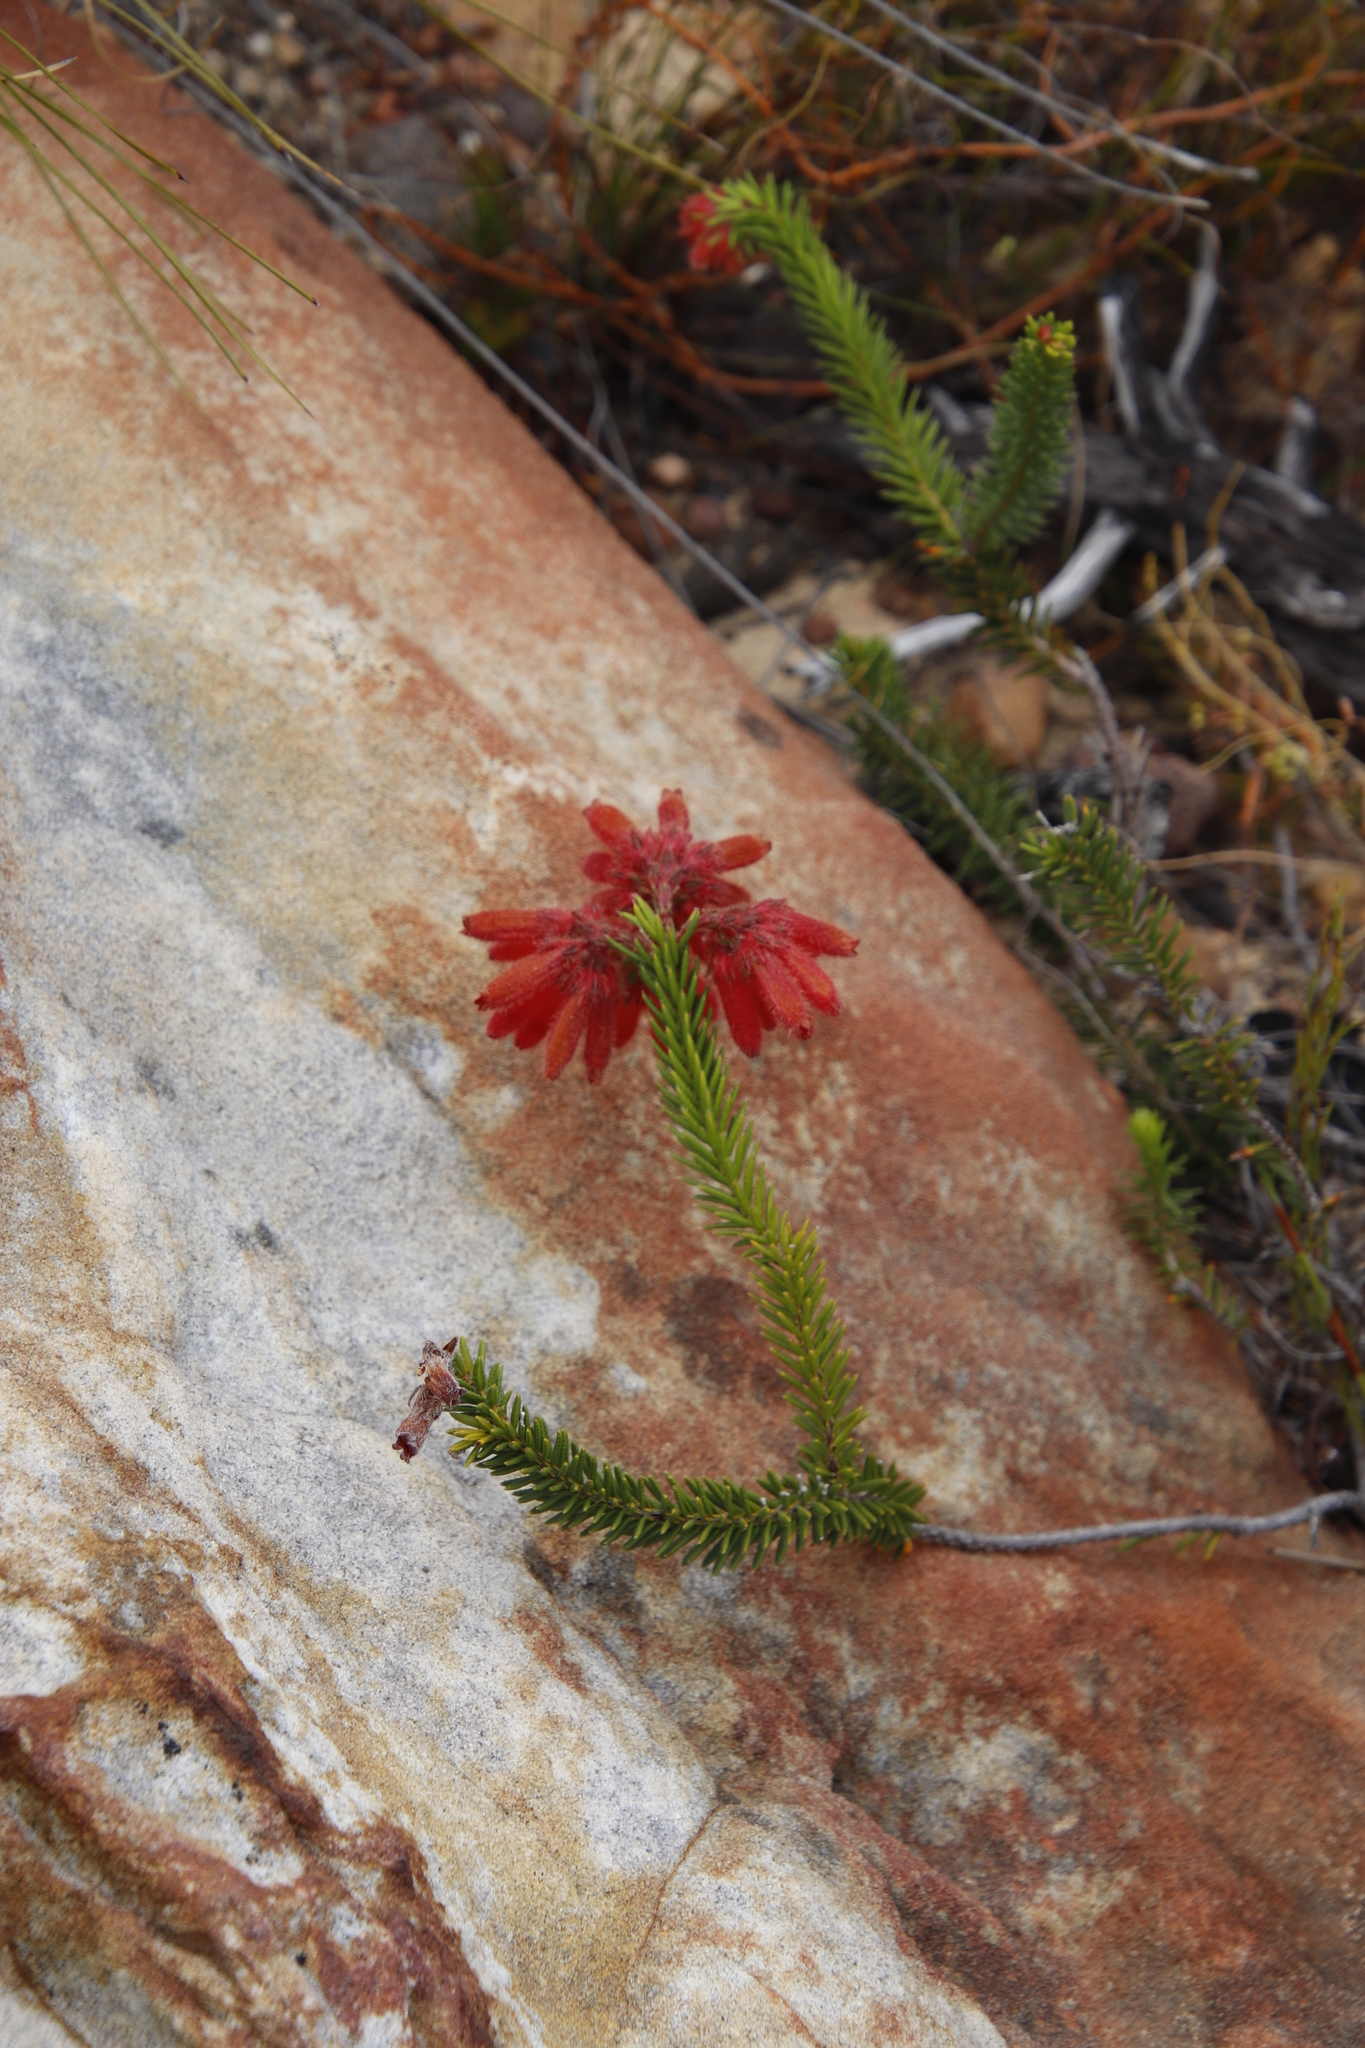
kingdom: Plantae
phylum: Tracheophyta
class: Magnoliopsida
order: Ericales
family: Ericaceae
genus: Erica
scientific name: Erica cerinthoides
